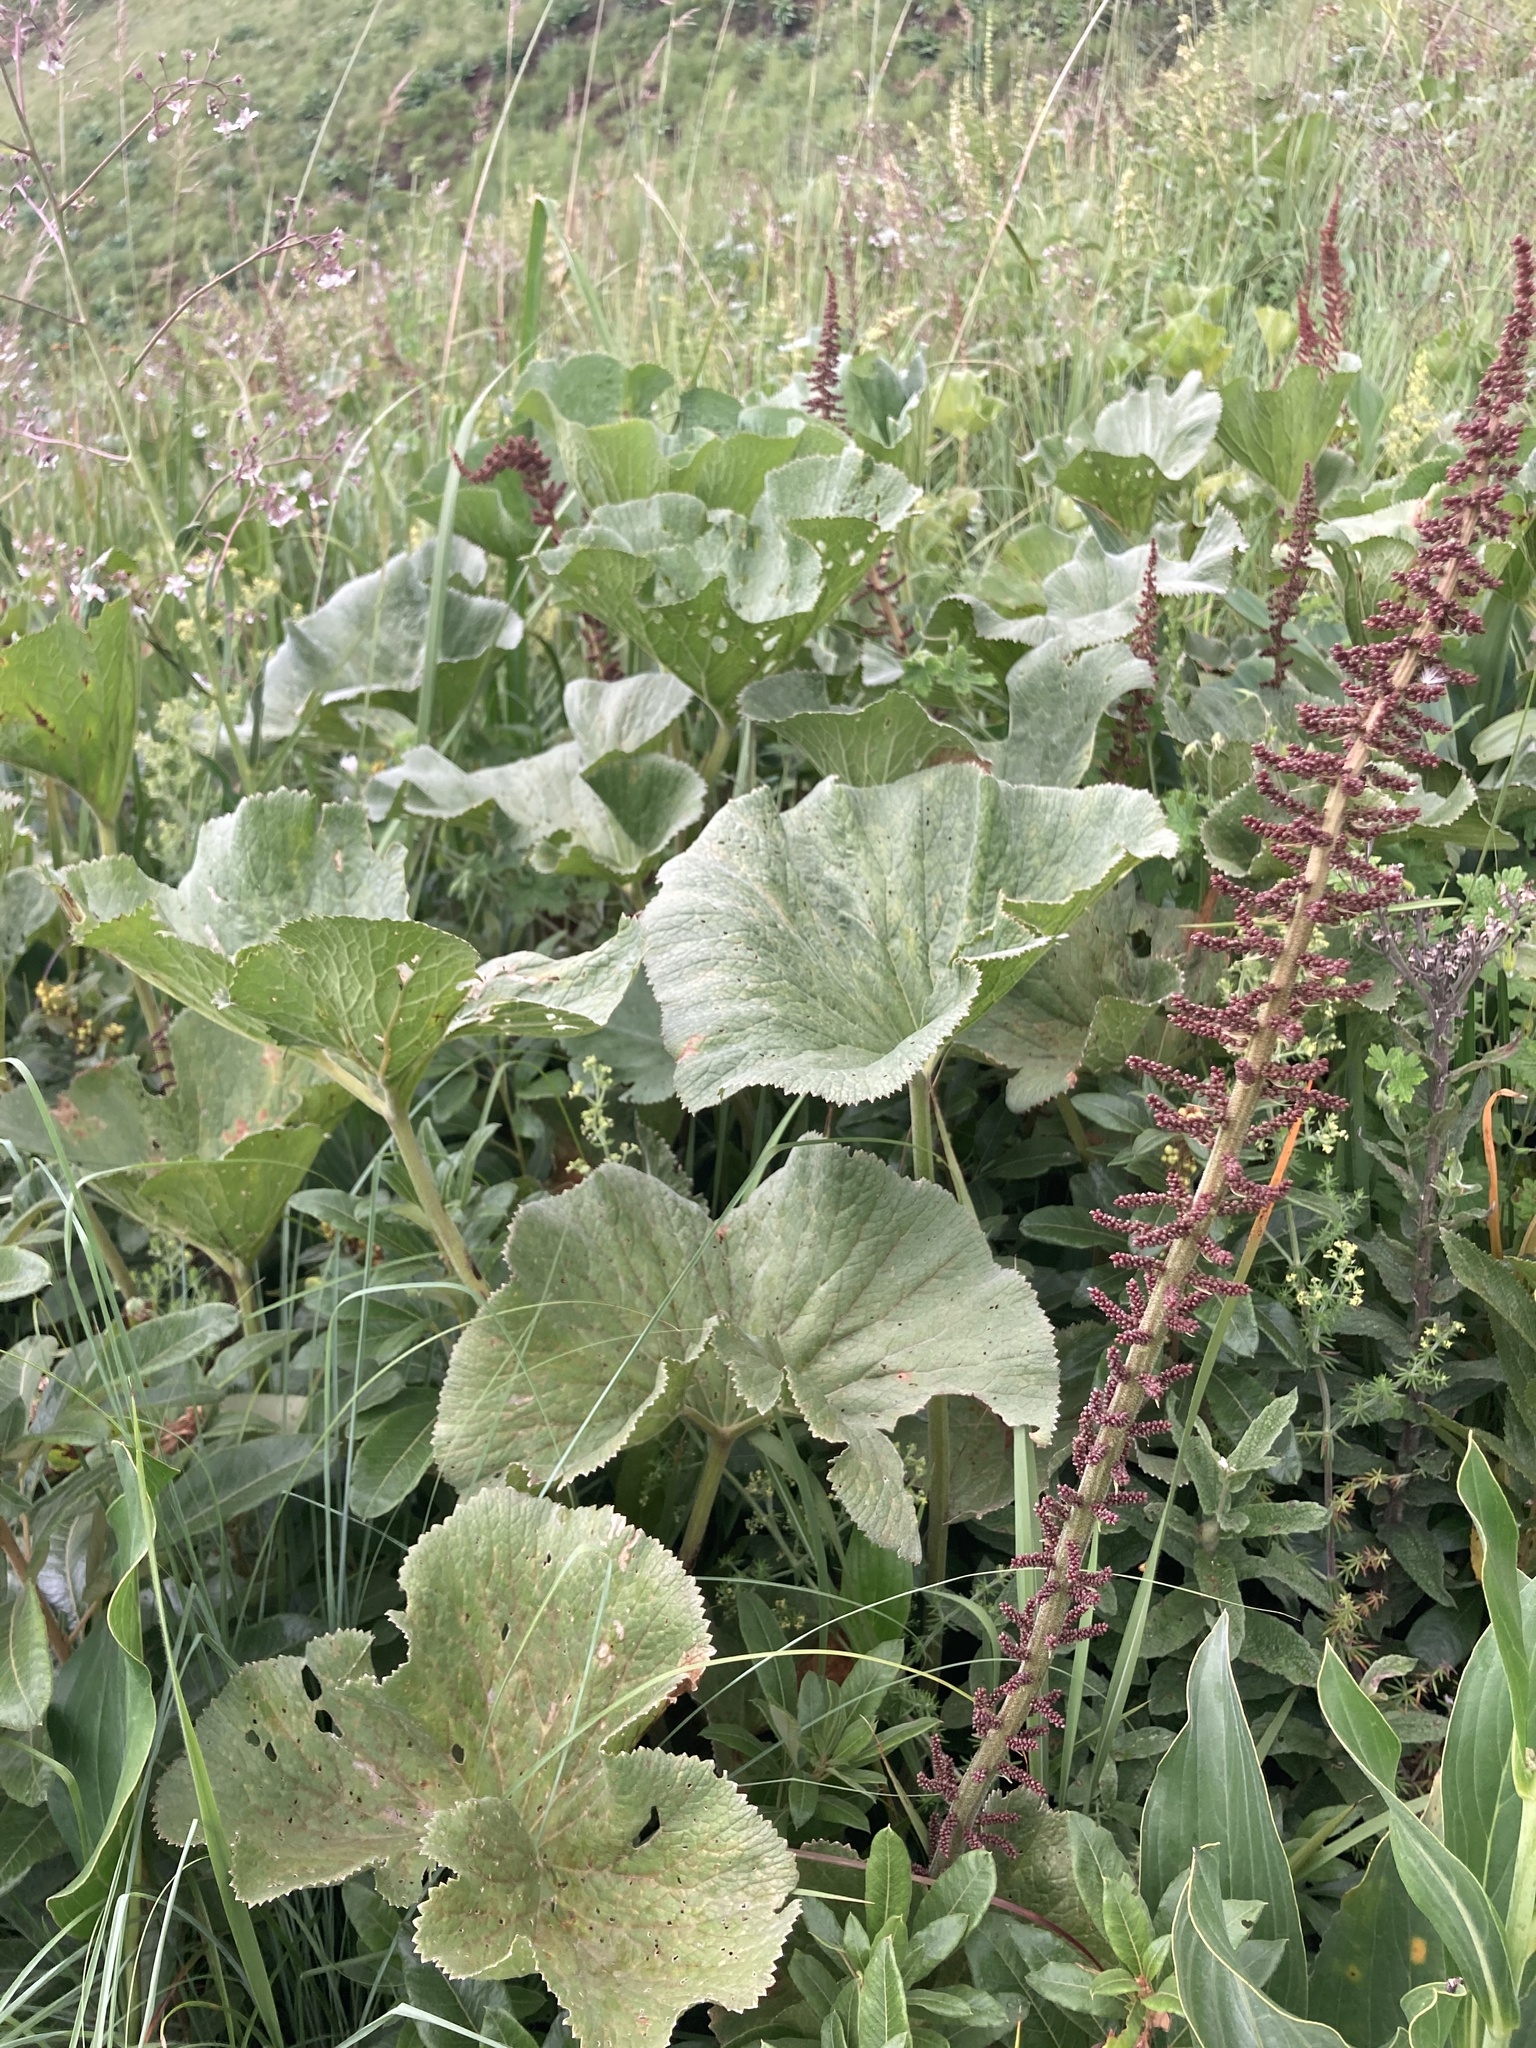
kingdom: Plantae
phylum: Tracheophyta
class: Magnoliopsida
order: Gunnerales
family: Gunneraceae
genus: Gunnera
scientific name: Gunnera perpensa
